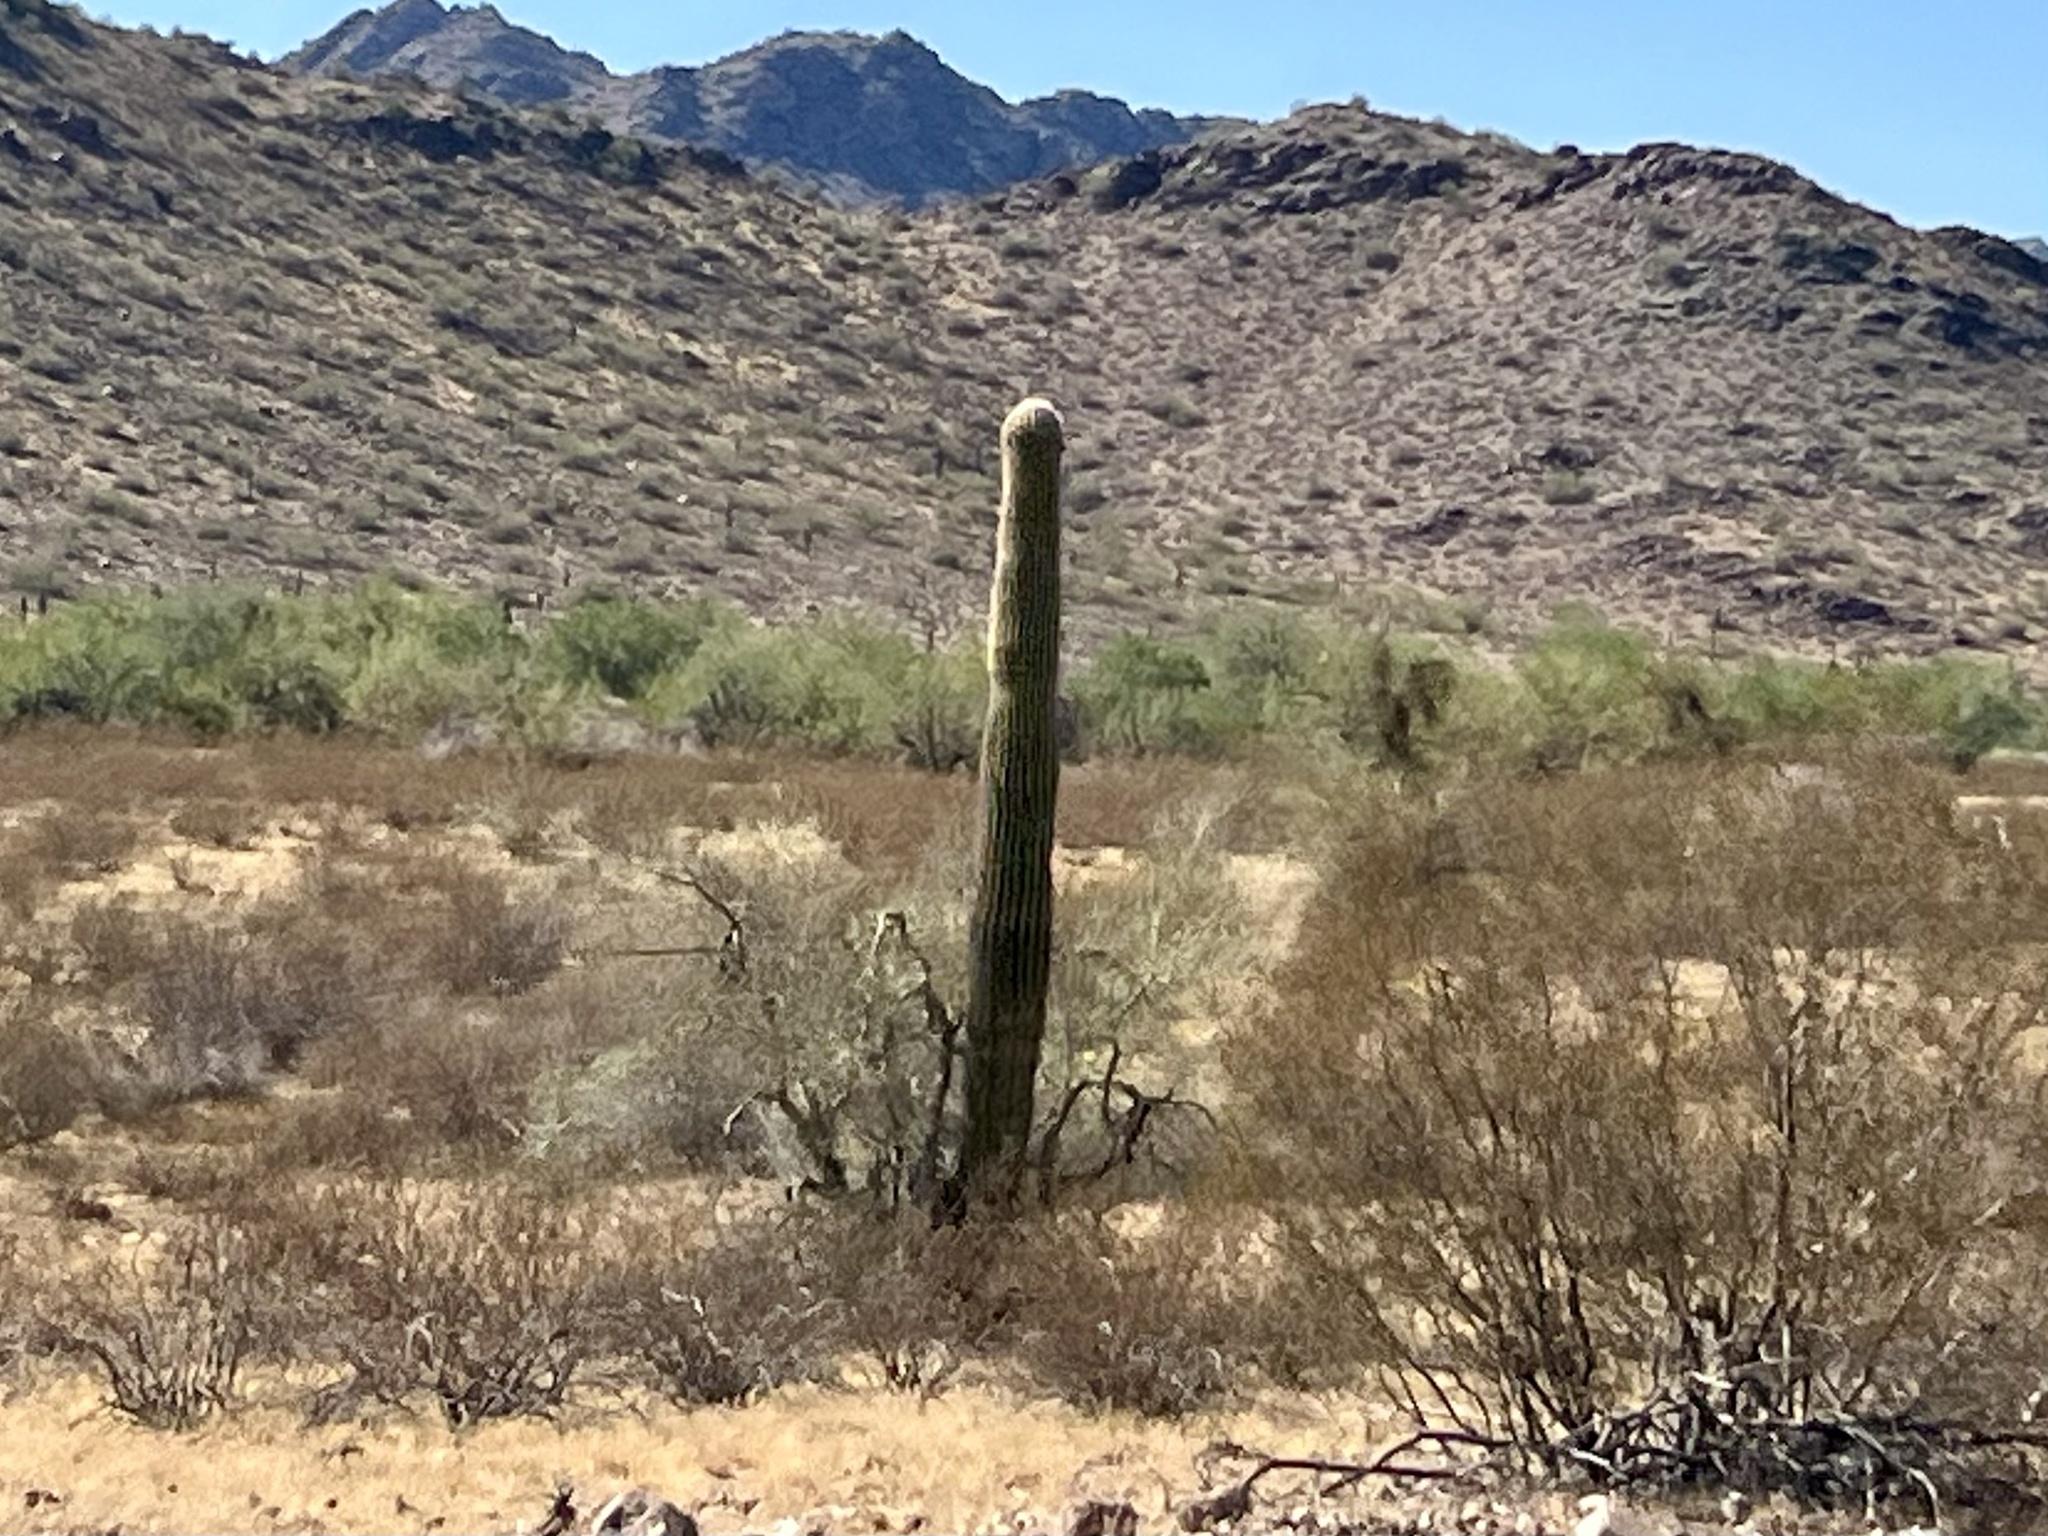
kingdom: Plantae
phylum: Tracheophyta
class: Magnoliopsida
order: Caryophyllales
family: Cactaceae
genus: Carnegiea
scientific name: Carnegiea gigantea
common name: Saguaro
